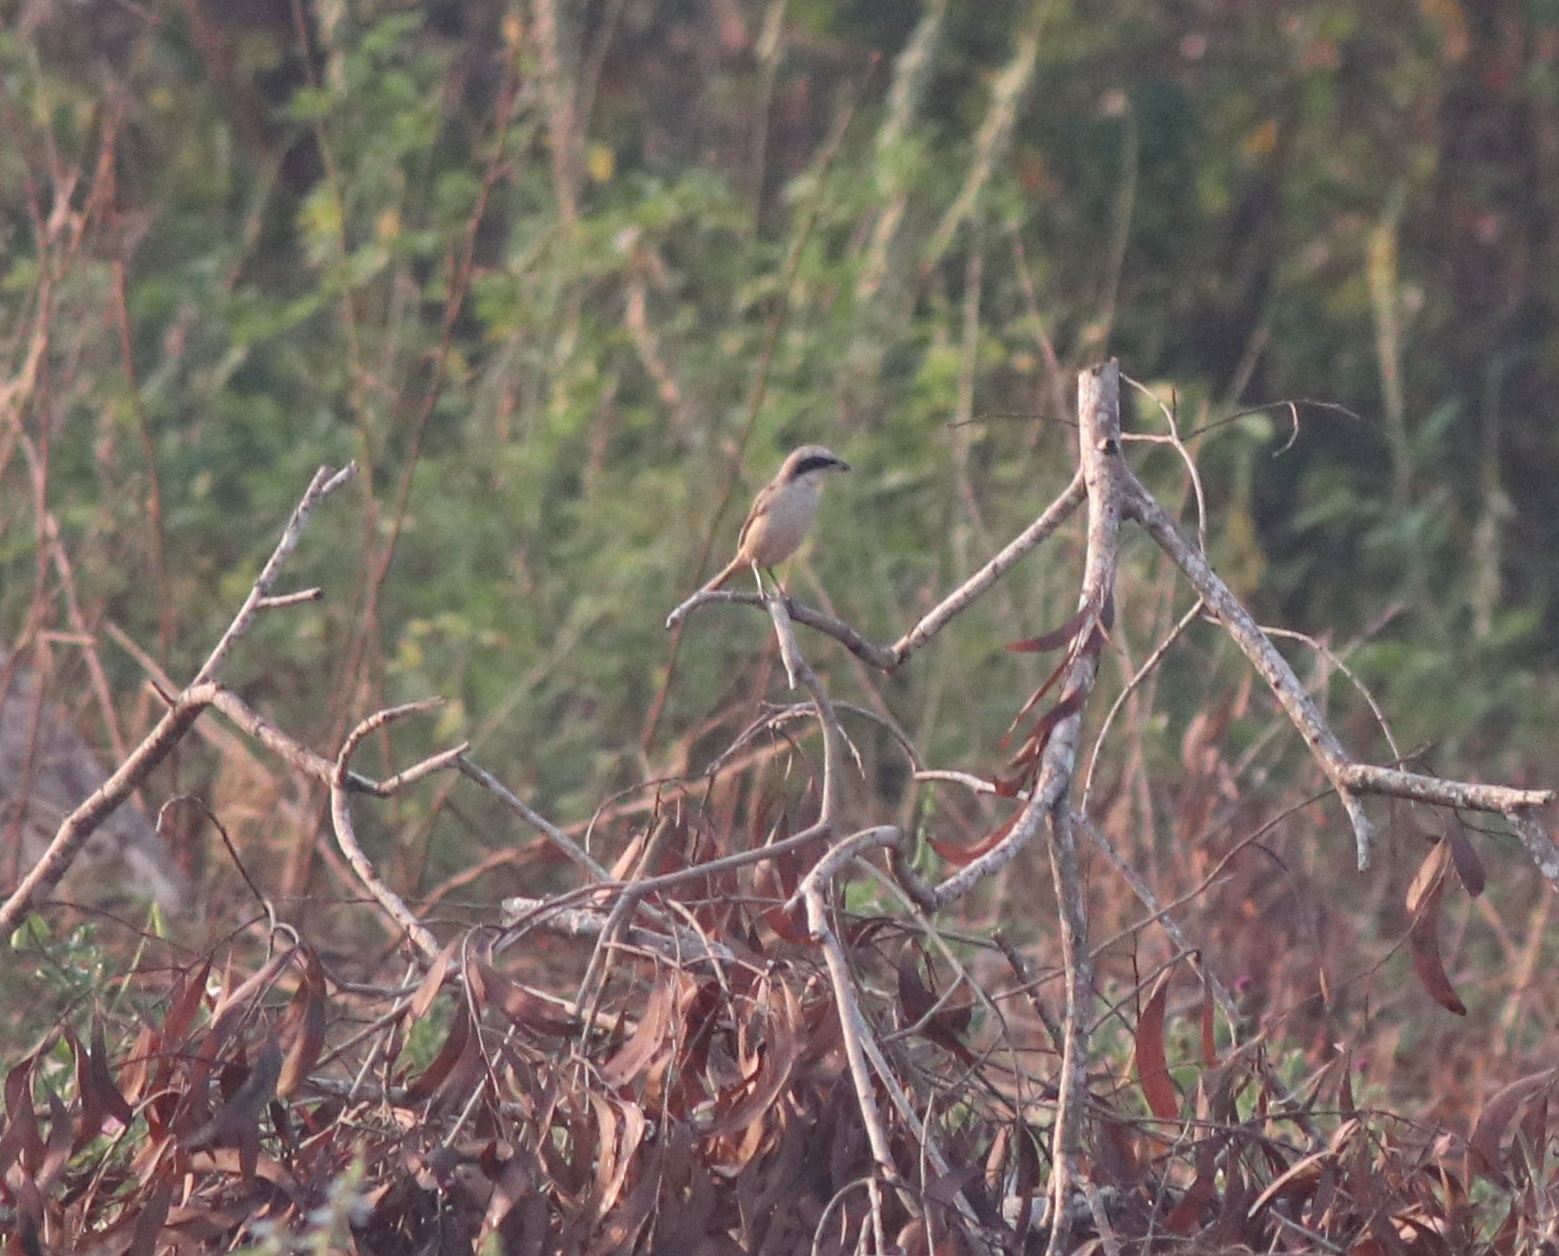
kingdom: Animalia
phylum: Chordata
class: Aves
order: Passeriformes
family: Laniidae
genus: Lanius
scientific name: Lanius schach
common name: Long-tailed shrike
